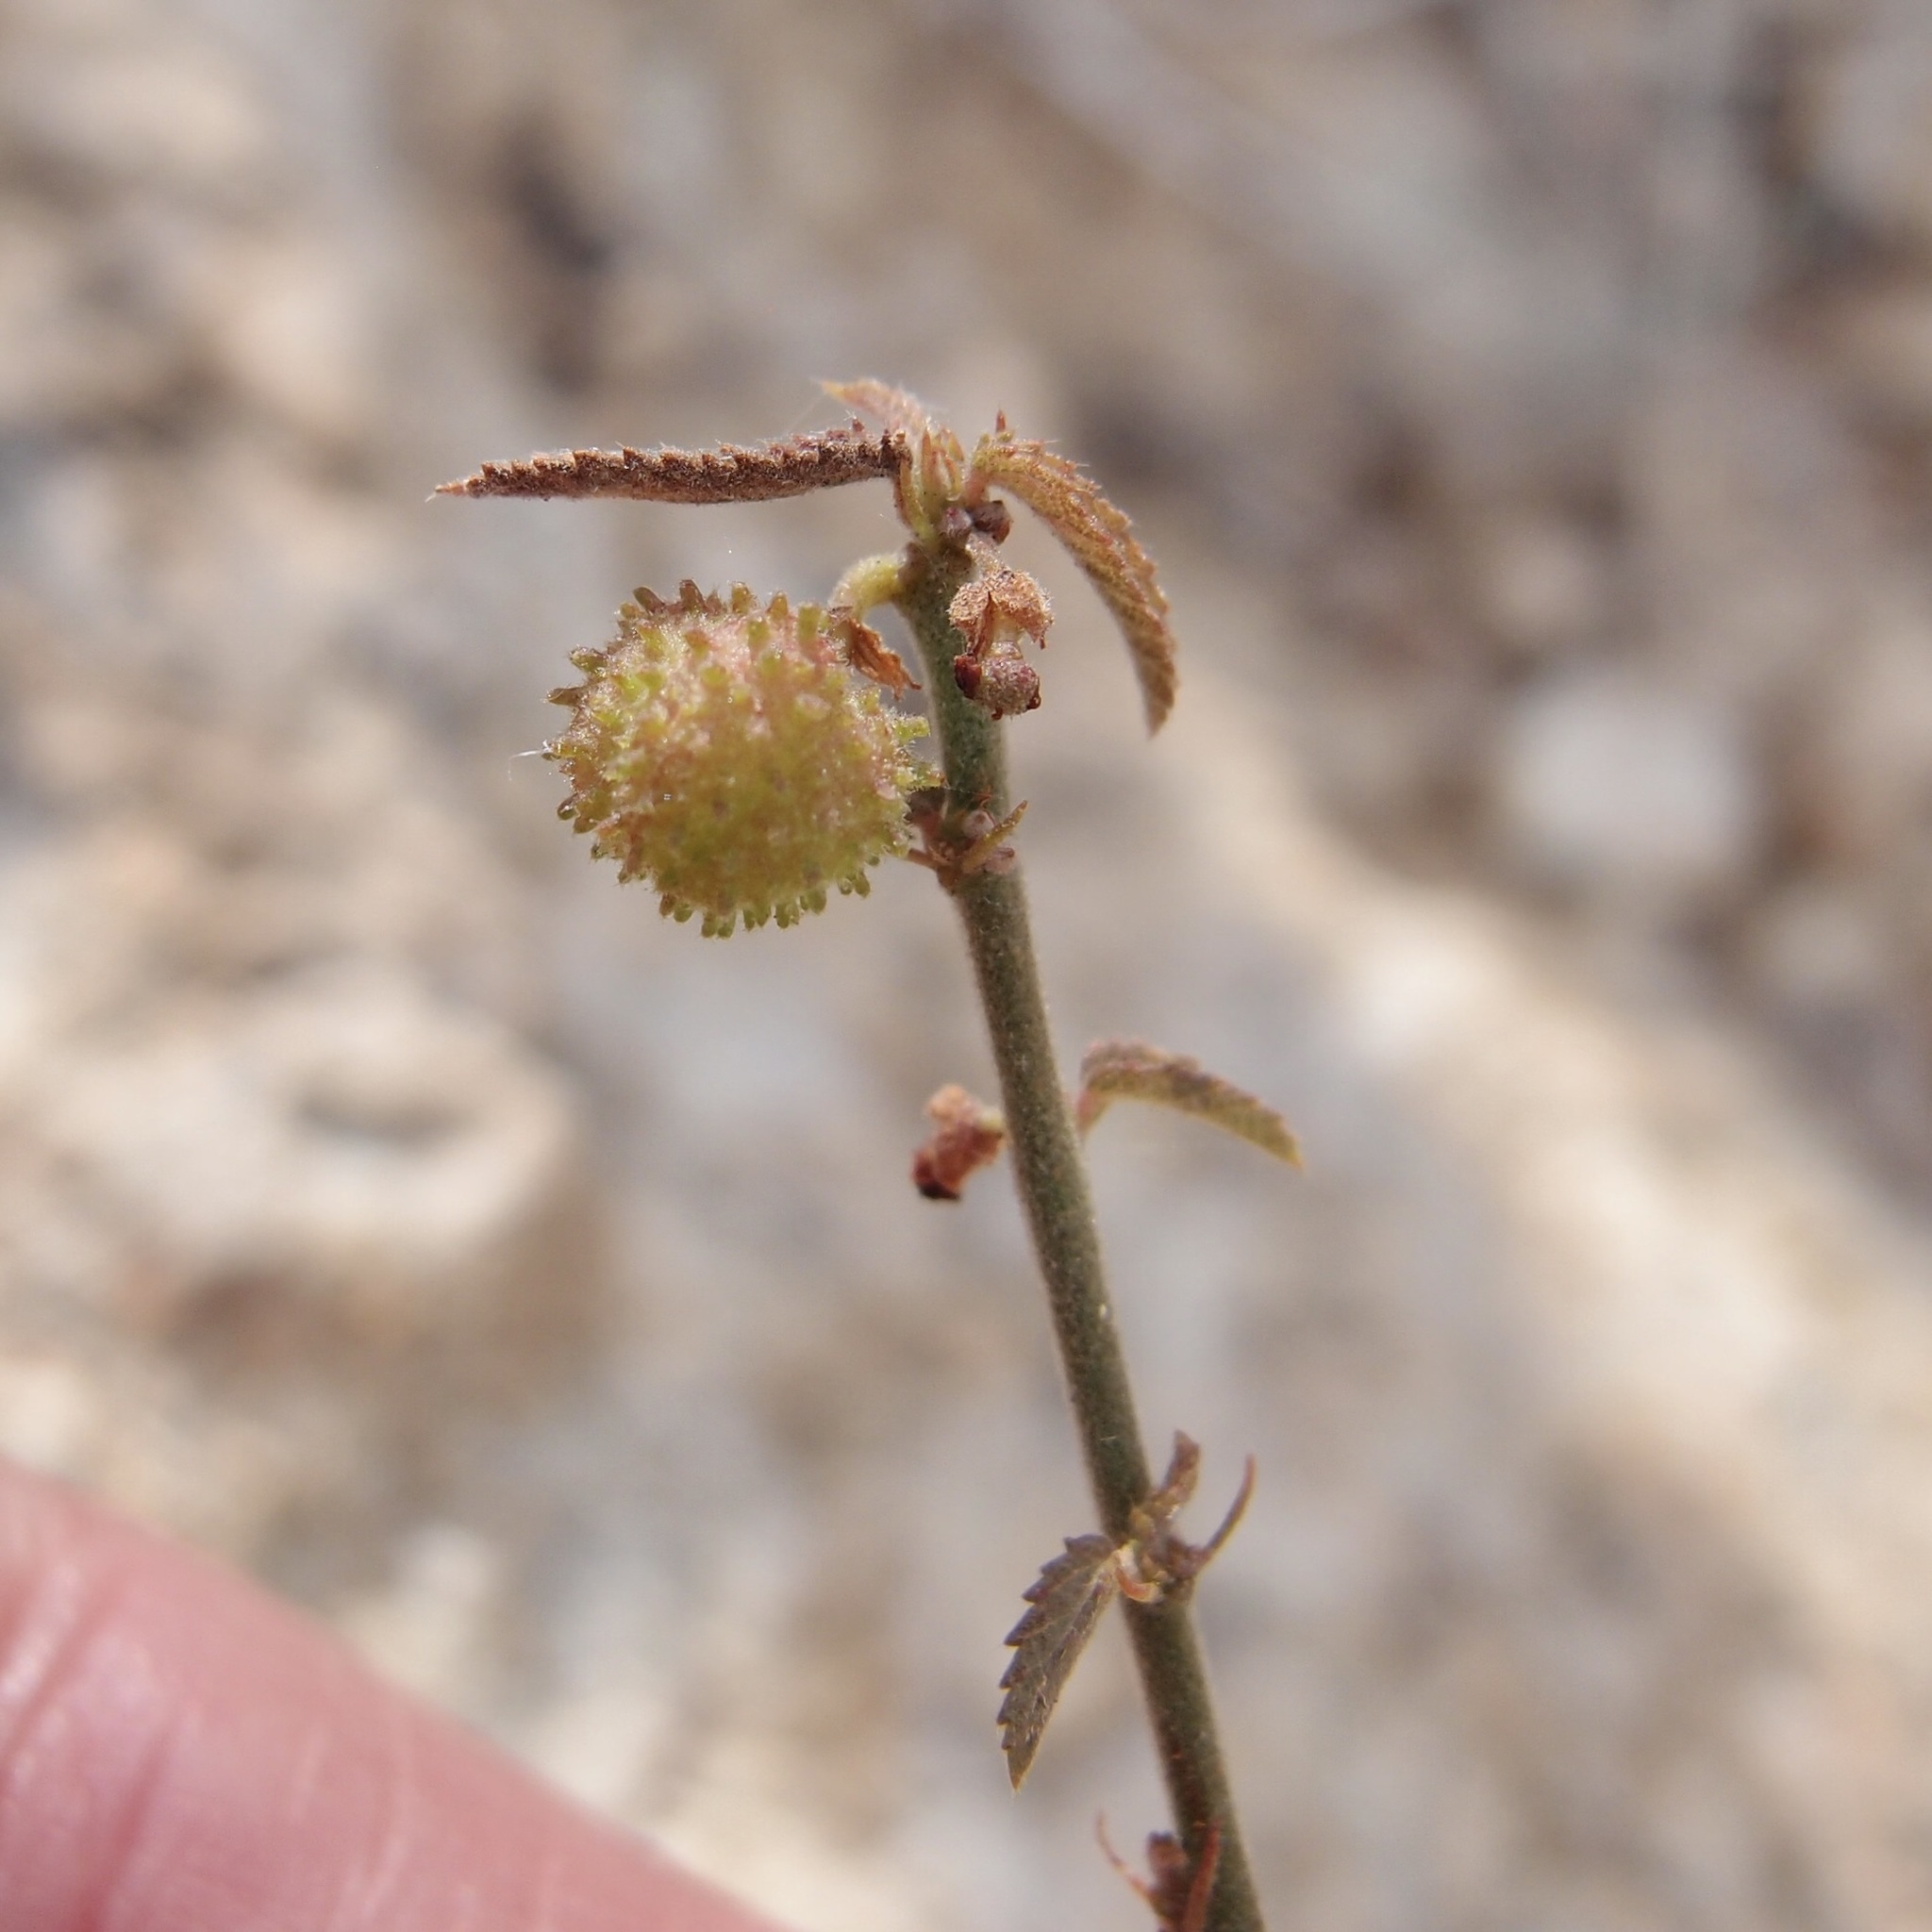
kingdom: Plantae
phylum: Tracheophyta
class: Magnoliopsida
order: Malvales
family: Malvaceae
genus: Ayenia
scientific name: Ayenia filiformis
